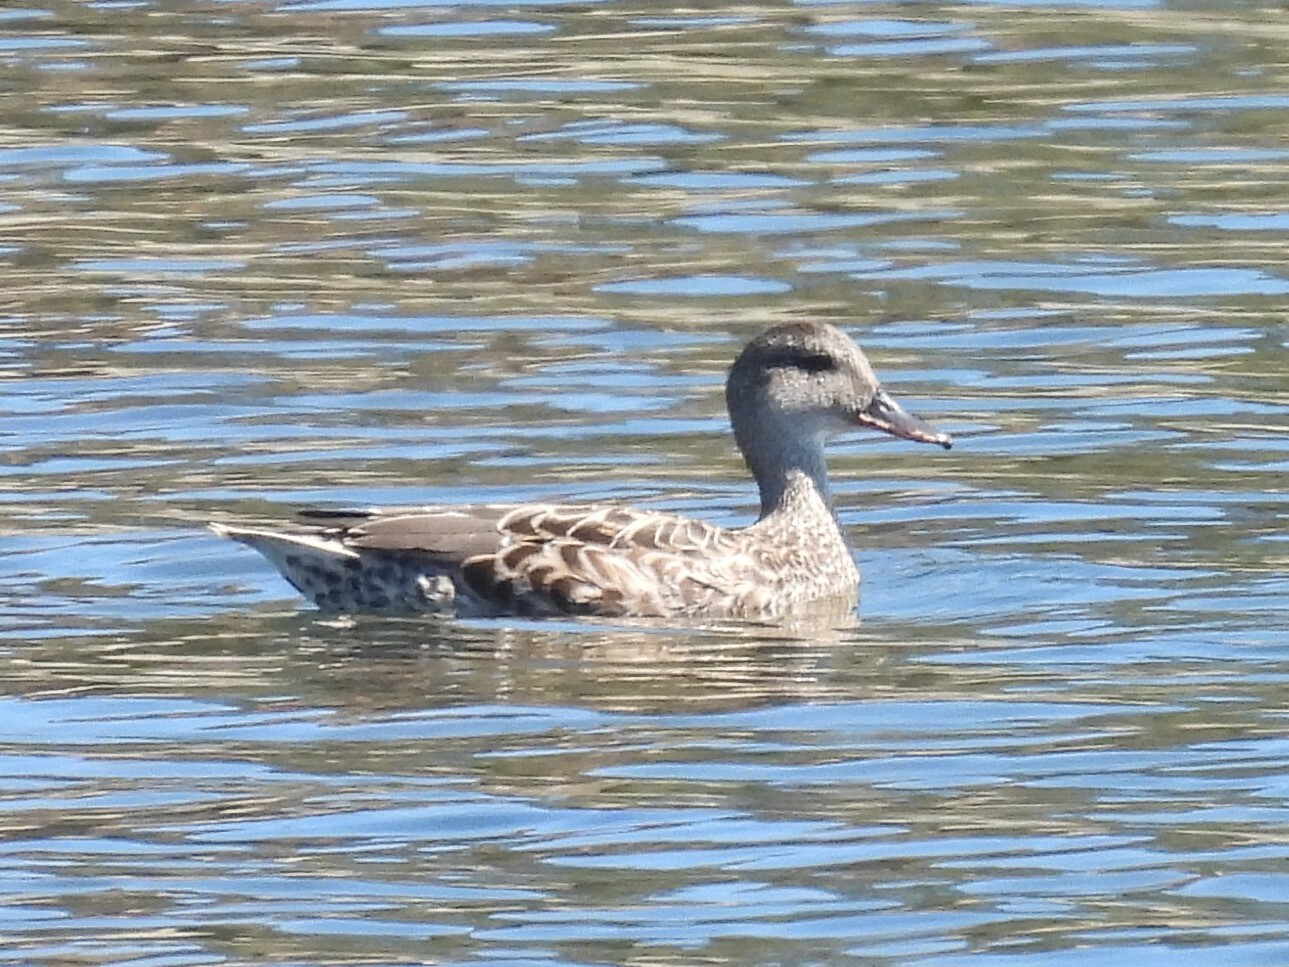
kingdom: Animalia
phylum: Chordata
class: Aves
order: Anseriformes
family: Anatidae
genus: Mareca
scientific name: Mareca strepera
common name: Gadwall
